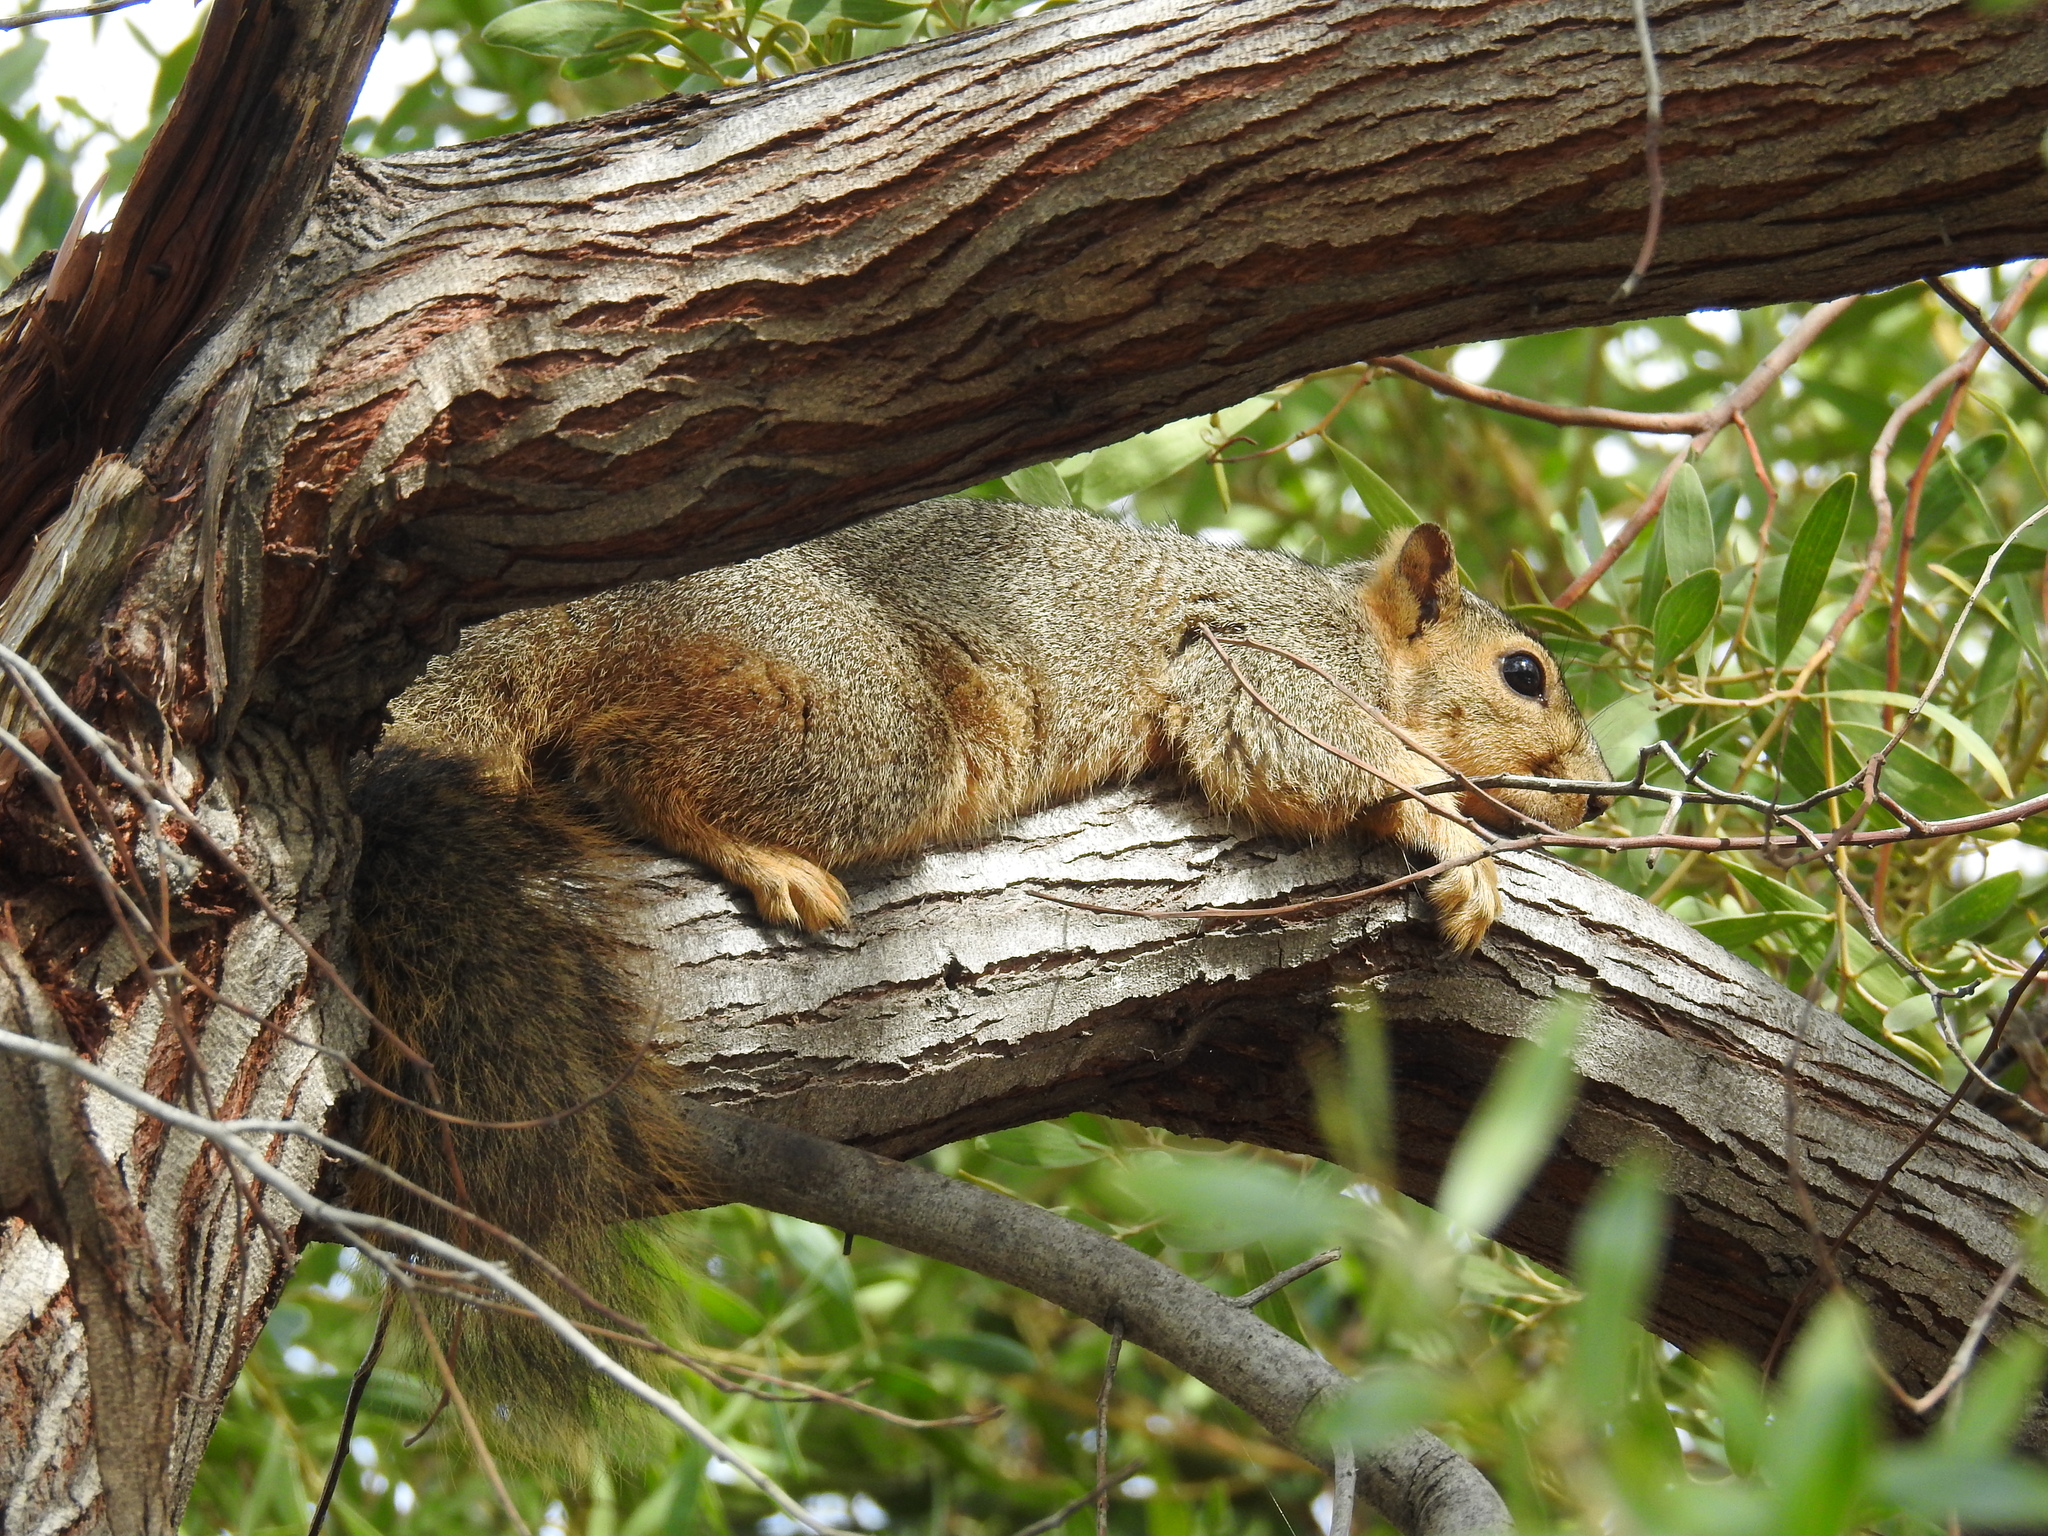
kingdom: Animalia
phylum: Chordata
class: Mammalia
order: Rodentia
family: Sciuridae
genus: Sciurus
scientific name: Sciurus niger
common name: Fox squirrel
